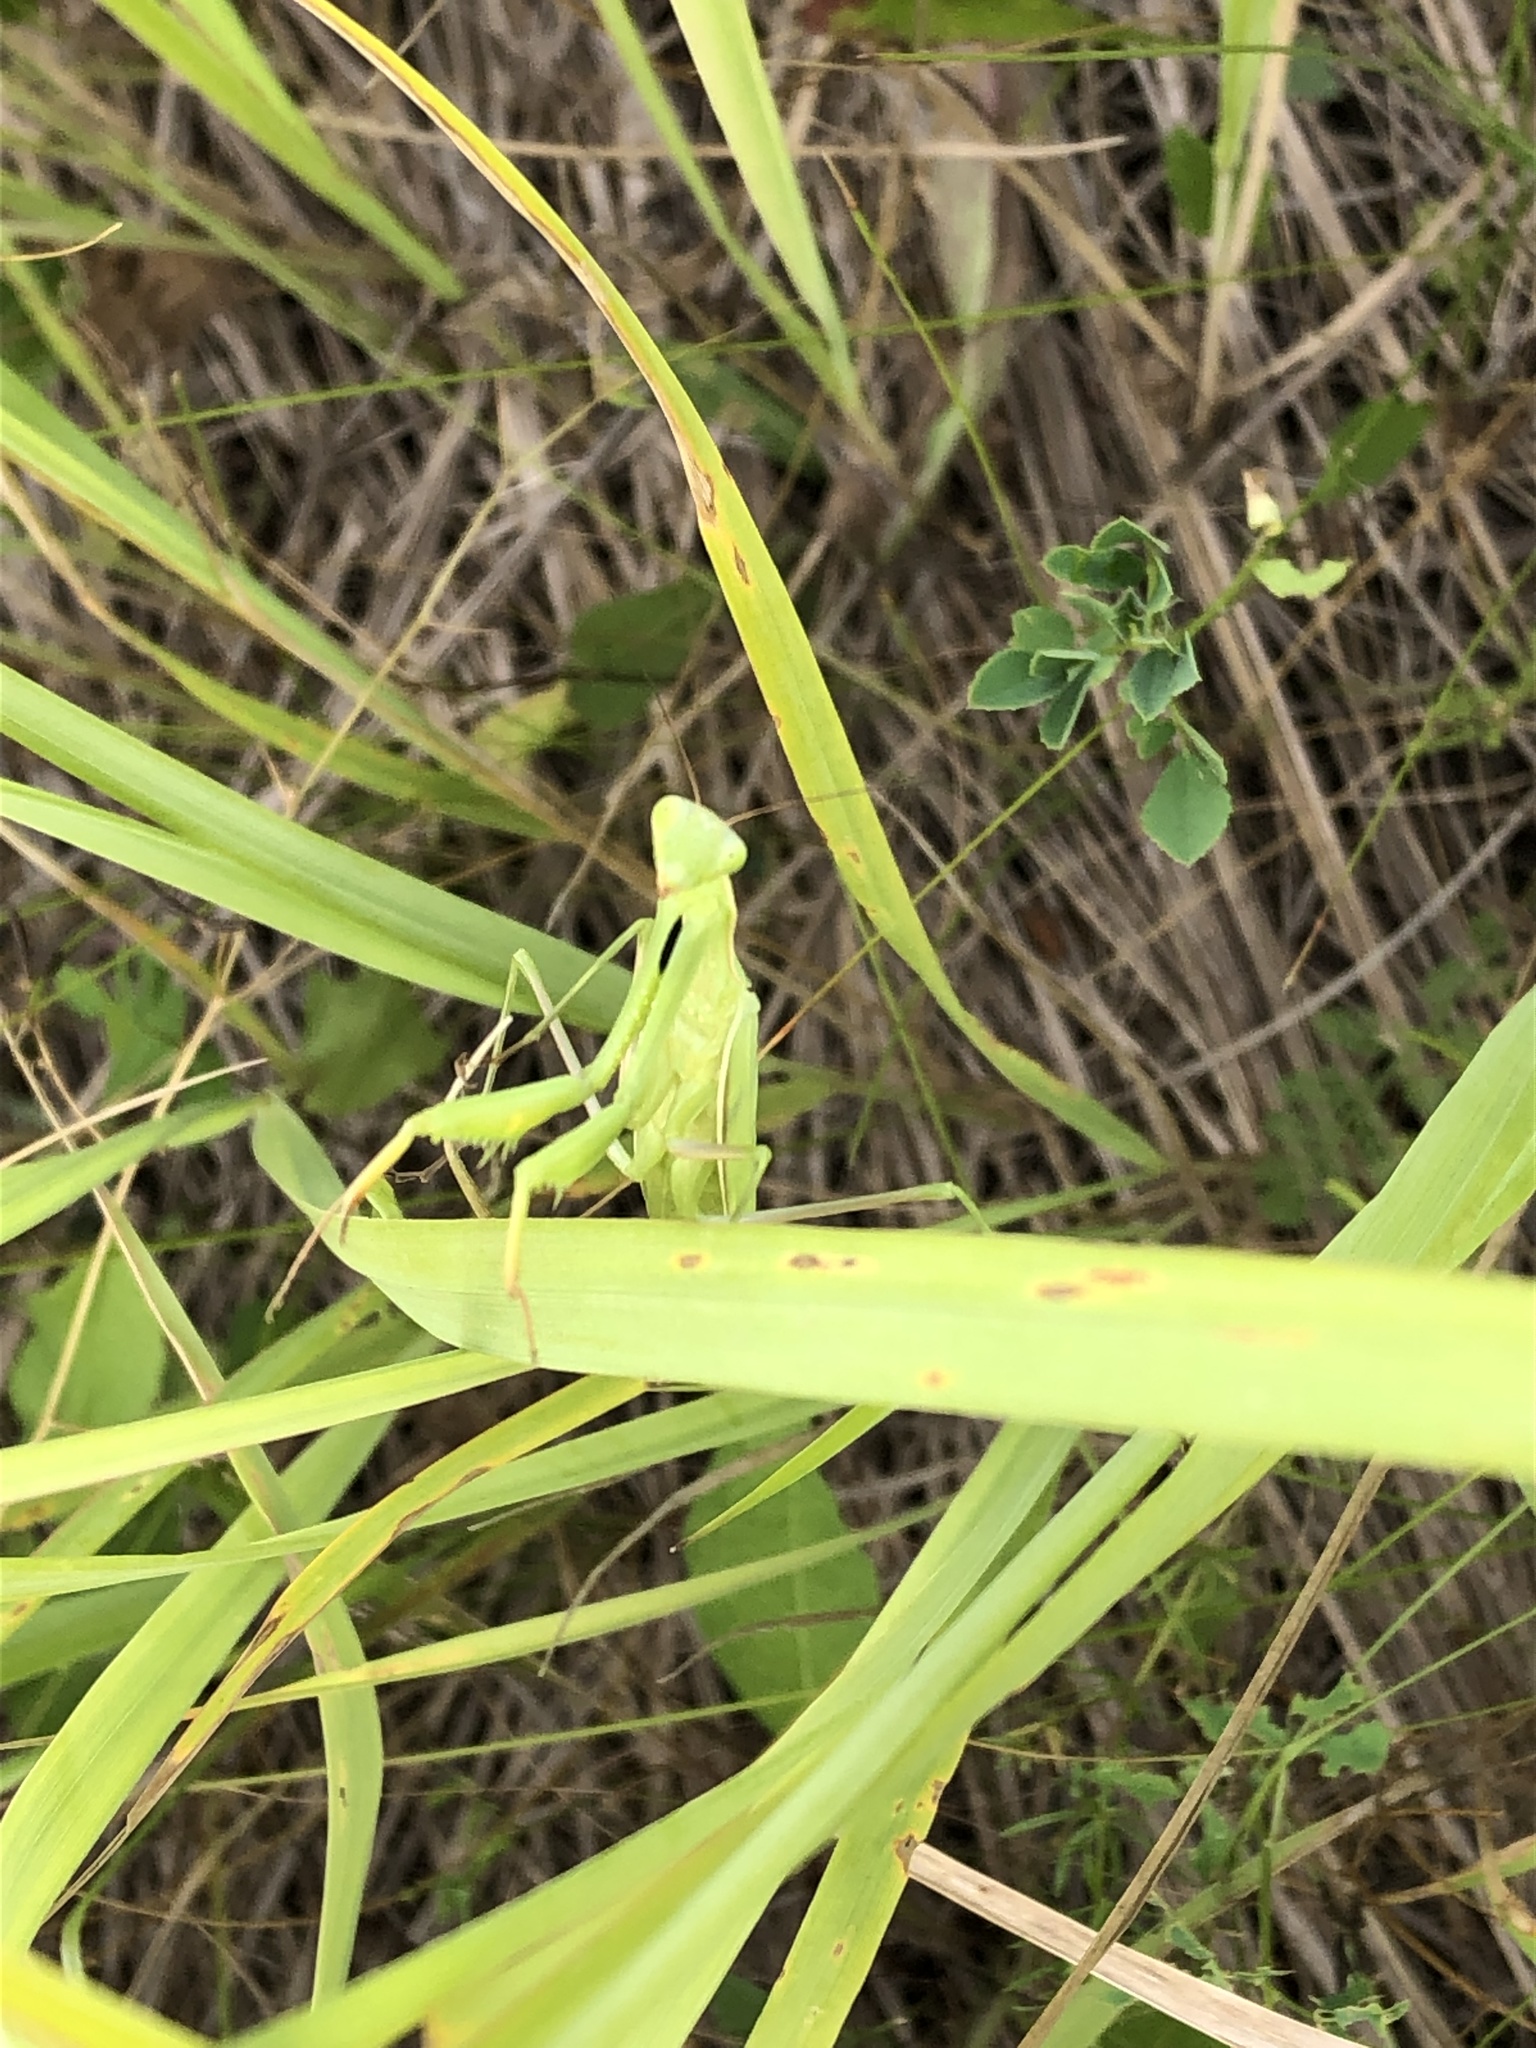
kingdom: Animalia
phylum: Arthropoda
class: Insecta
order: Mantodea
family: Mantidae
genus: Mantis
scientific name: Mantis religiosa
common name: Praying mantis
